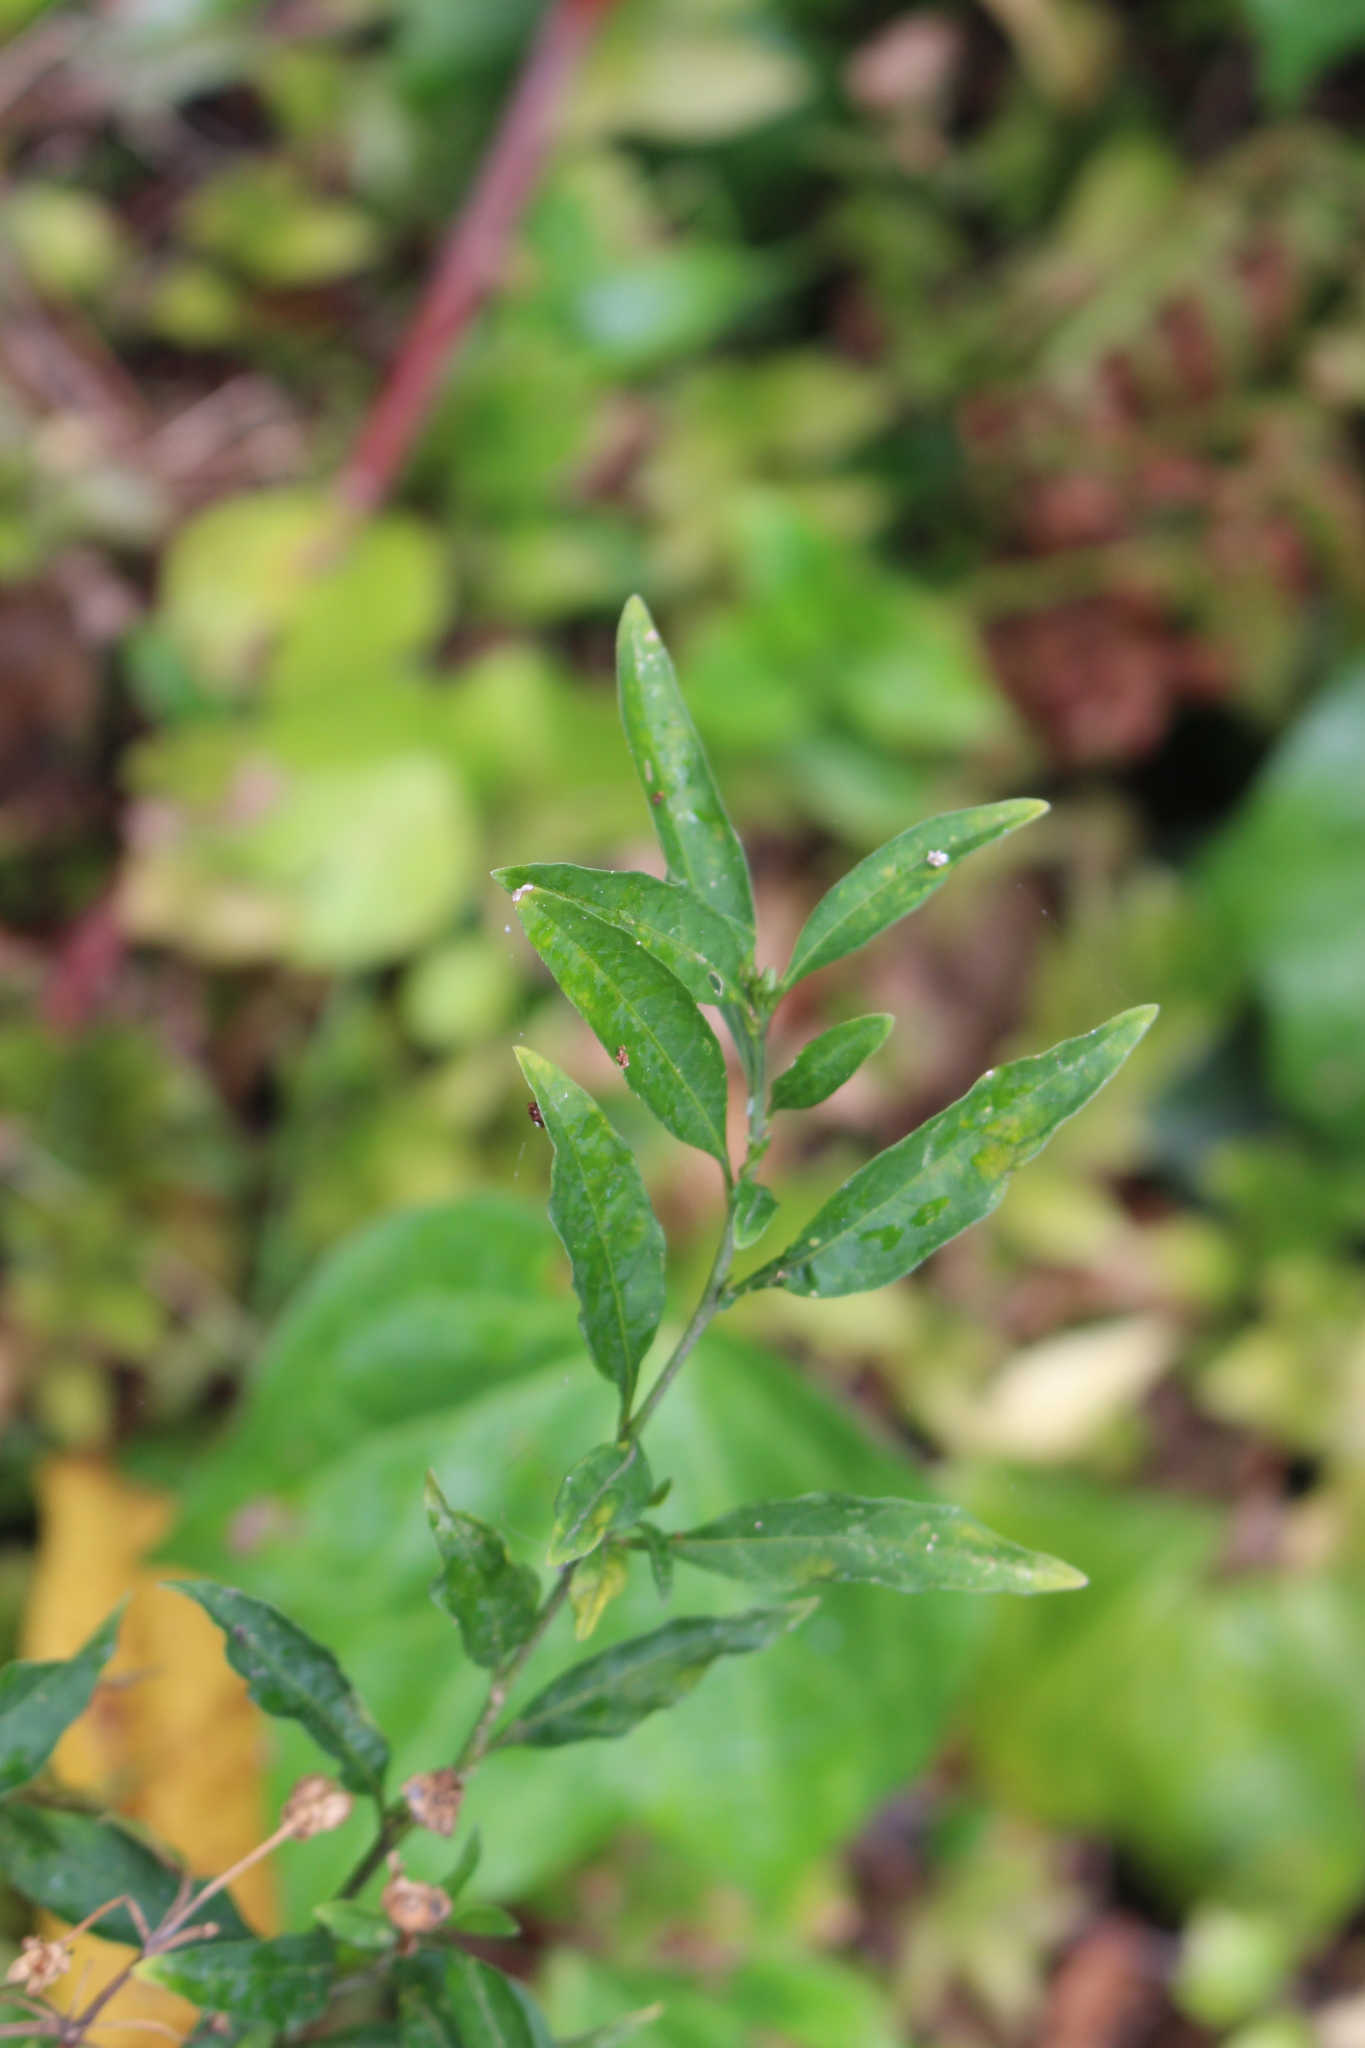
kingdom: Plantae
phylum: Tracheophyta
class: Magnoliopsida
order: Solanales
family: Solanaceae
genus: Solanum
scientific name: Solanum pseudocapsicum
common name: Jerusalem cherry
